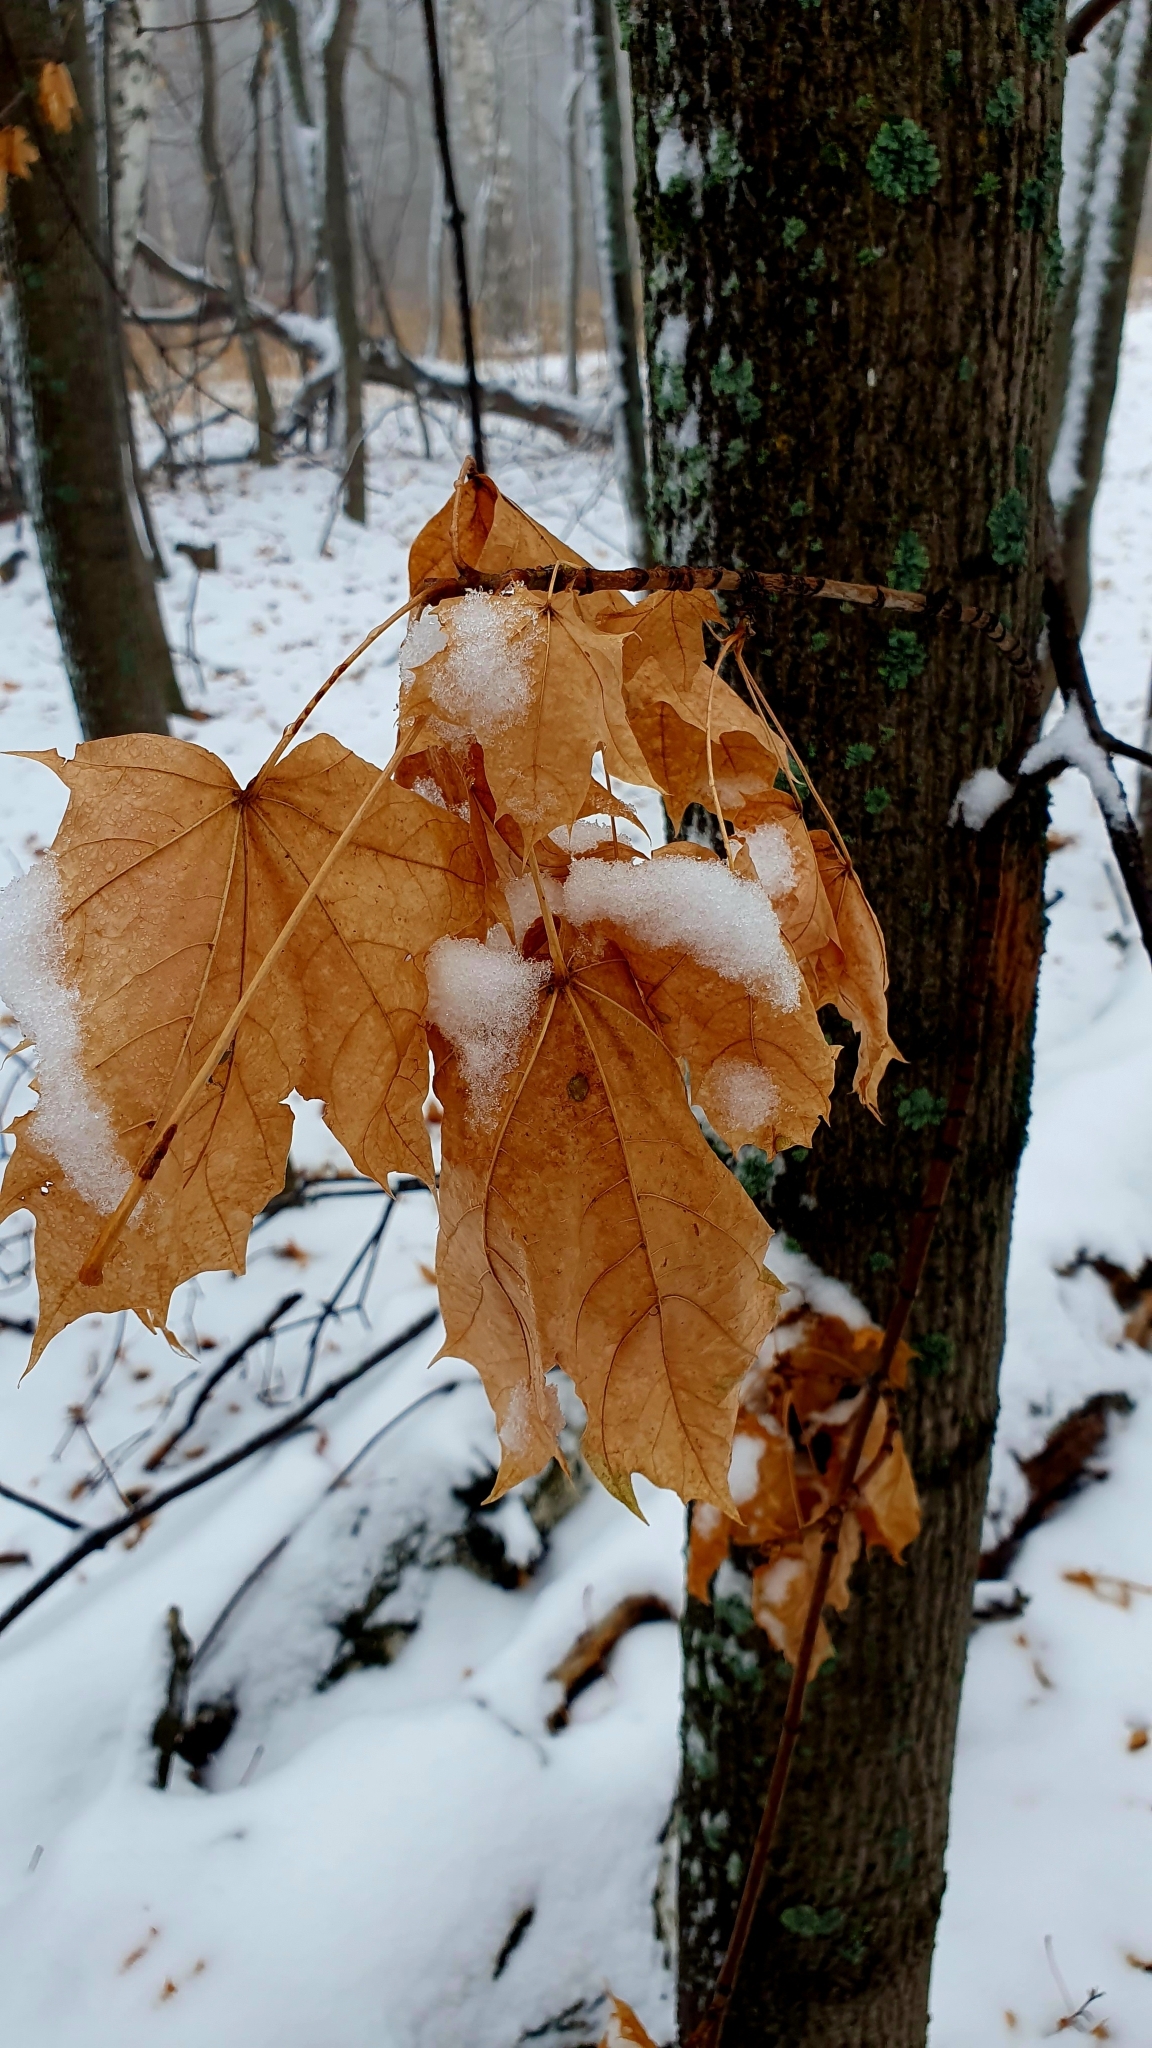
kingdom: Plantae
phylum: Tracheophyta
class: Magnoliopsida
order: Sapindales
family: Sapindaceae
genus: Acer
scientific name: Acer platanoides
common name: Norway maple
